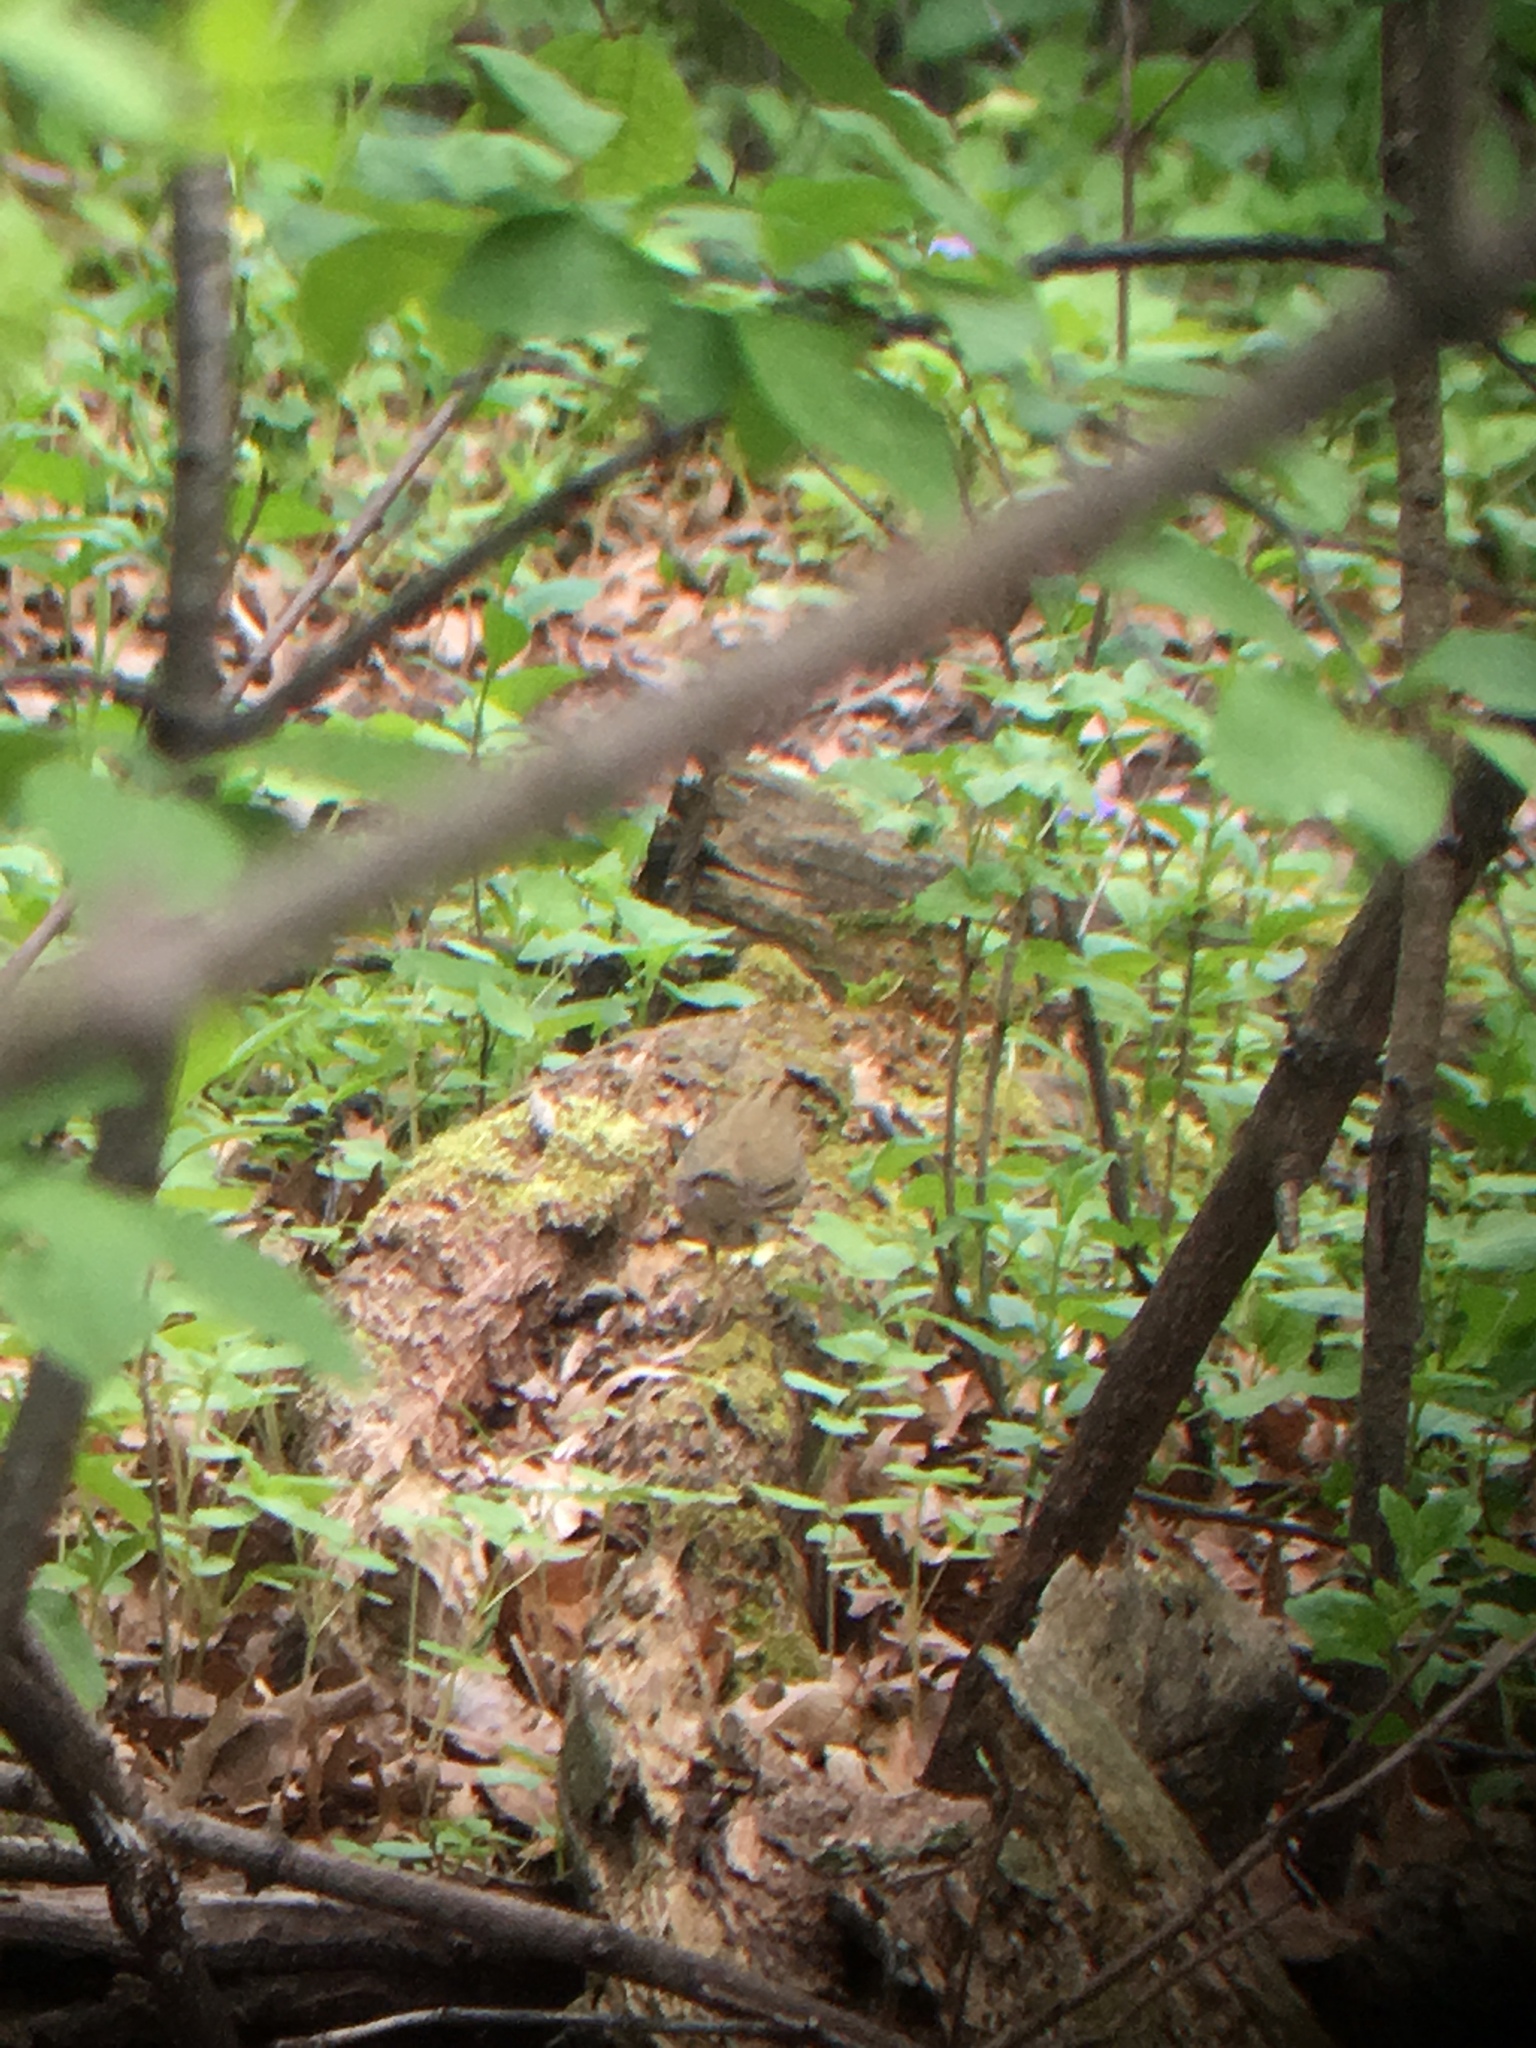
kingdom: Animalia
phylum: Chordata
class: Aves
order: Passeriformes
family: Parulidae
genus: Seiurus
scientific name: Seiurus aurocapilla
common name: Ovenbird
